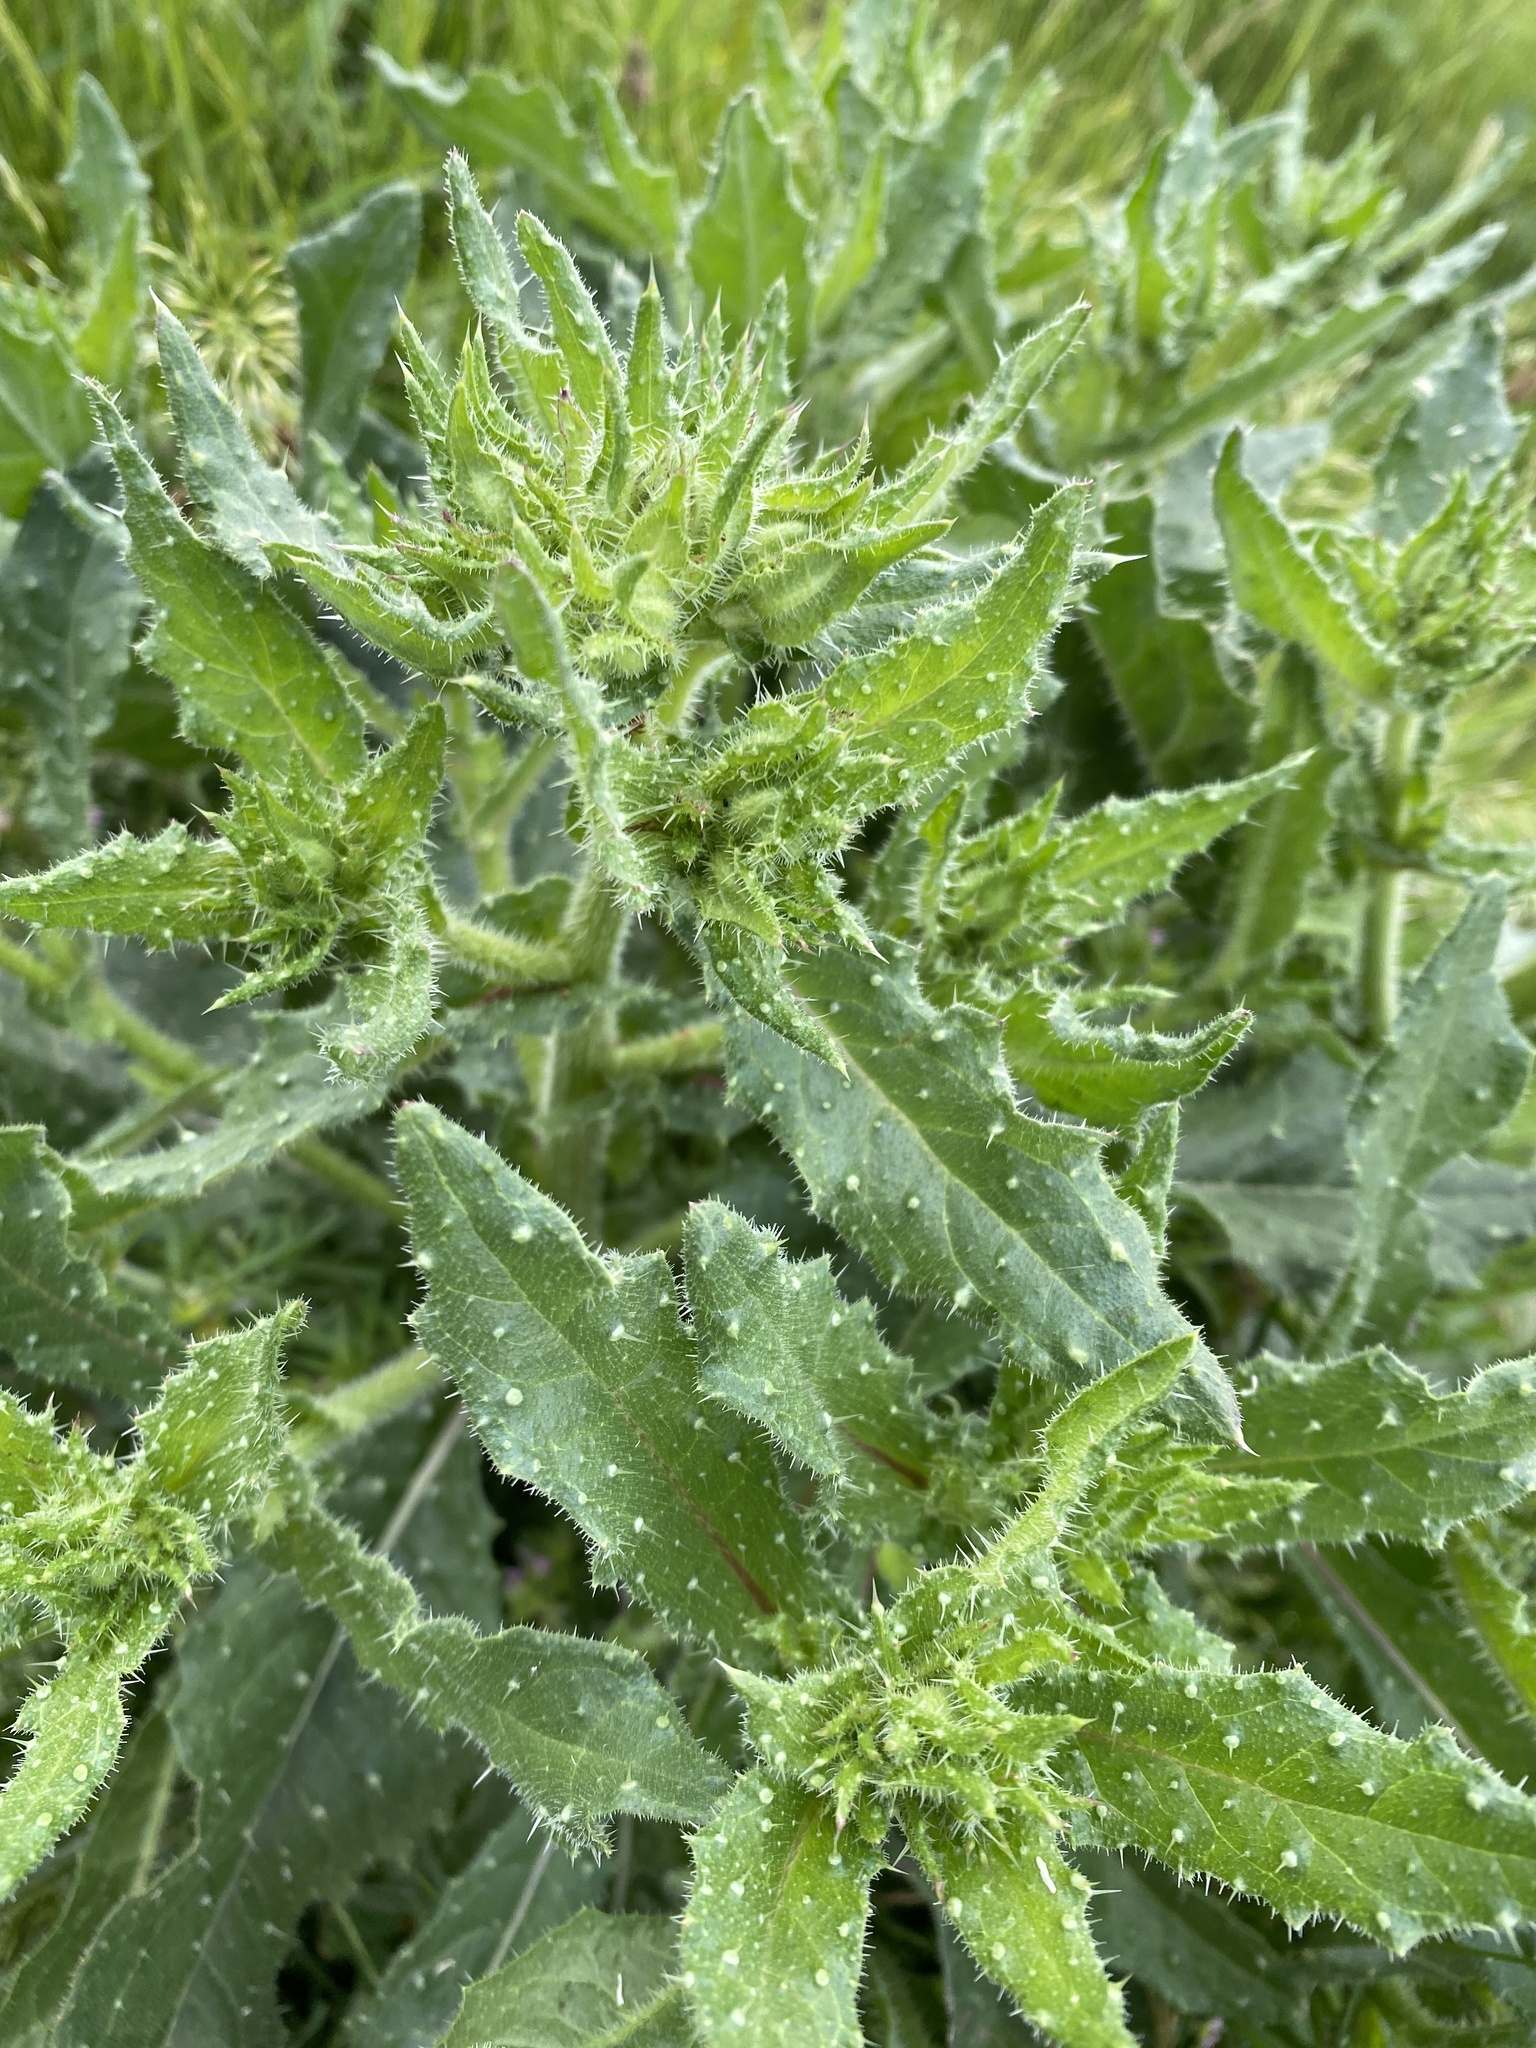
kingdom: Plantae
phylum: Tracheophyta
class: Magnoliopsida
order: Asterales
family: Asteraceae
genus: Helminthotheca
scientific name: Helminthotheca echioides
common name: Ox-tongue
